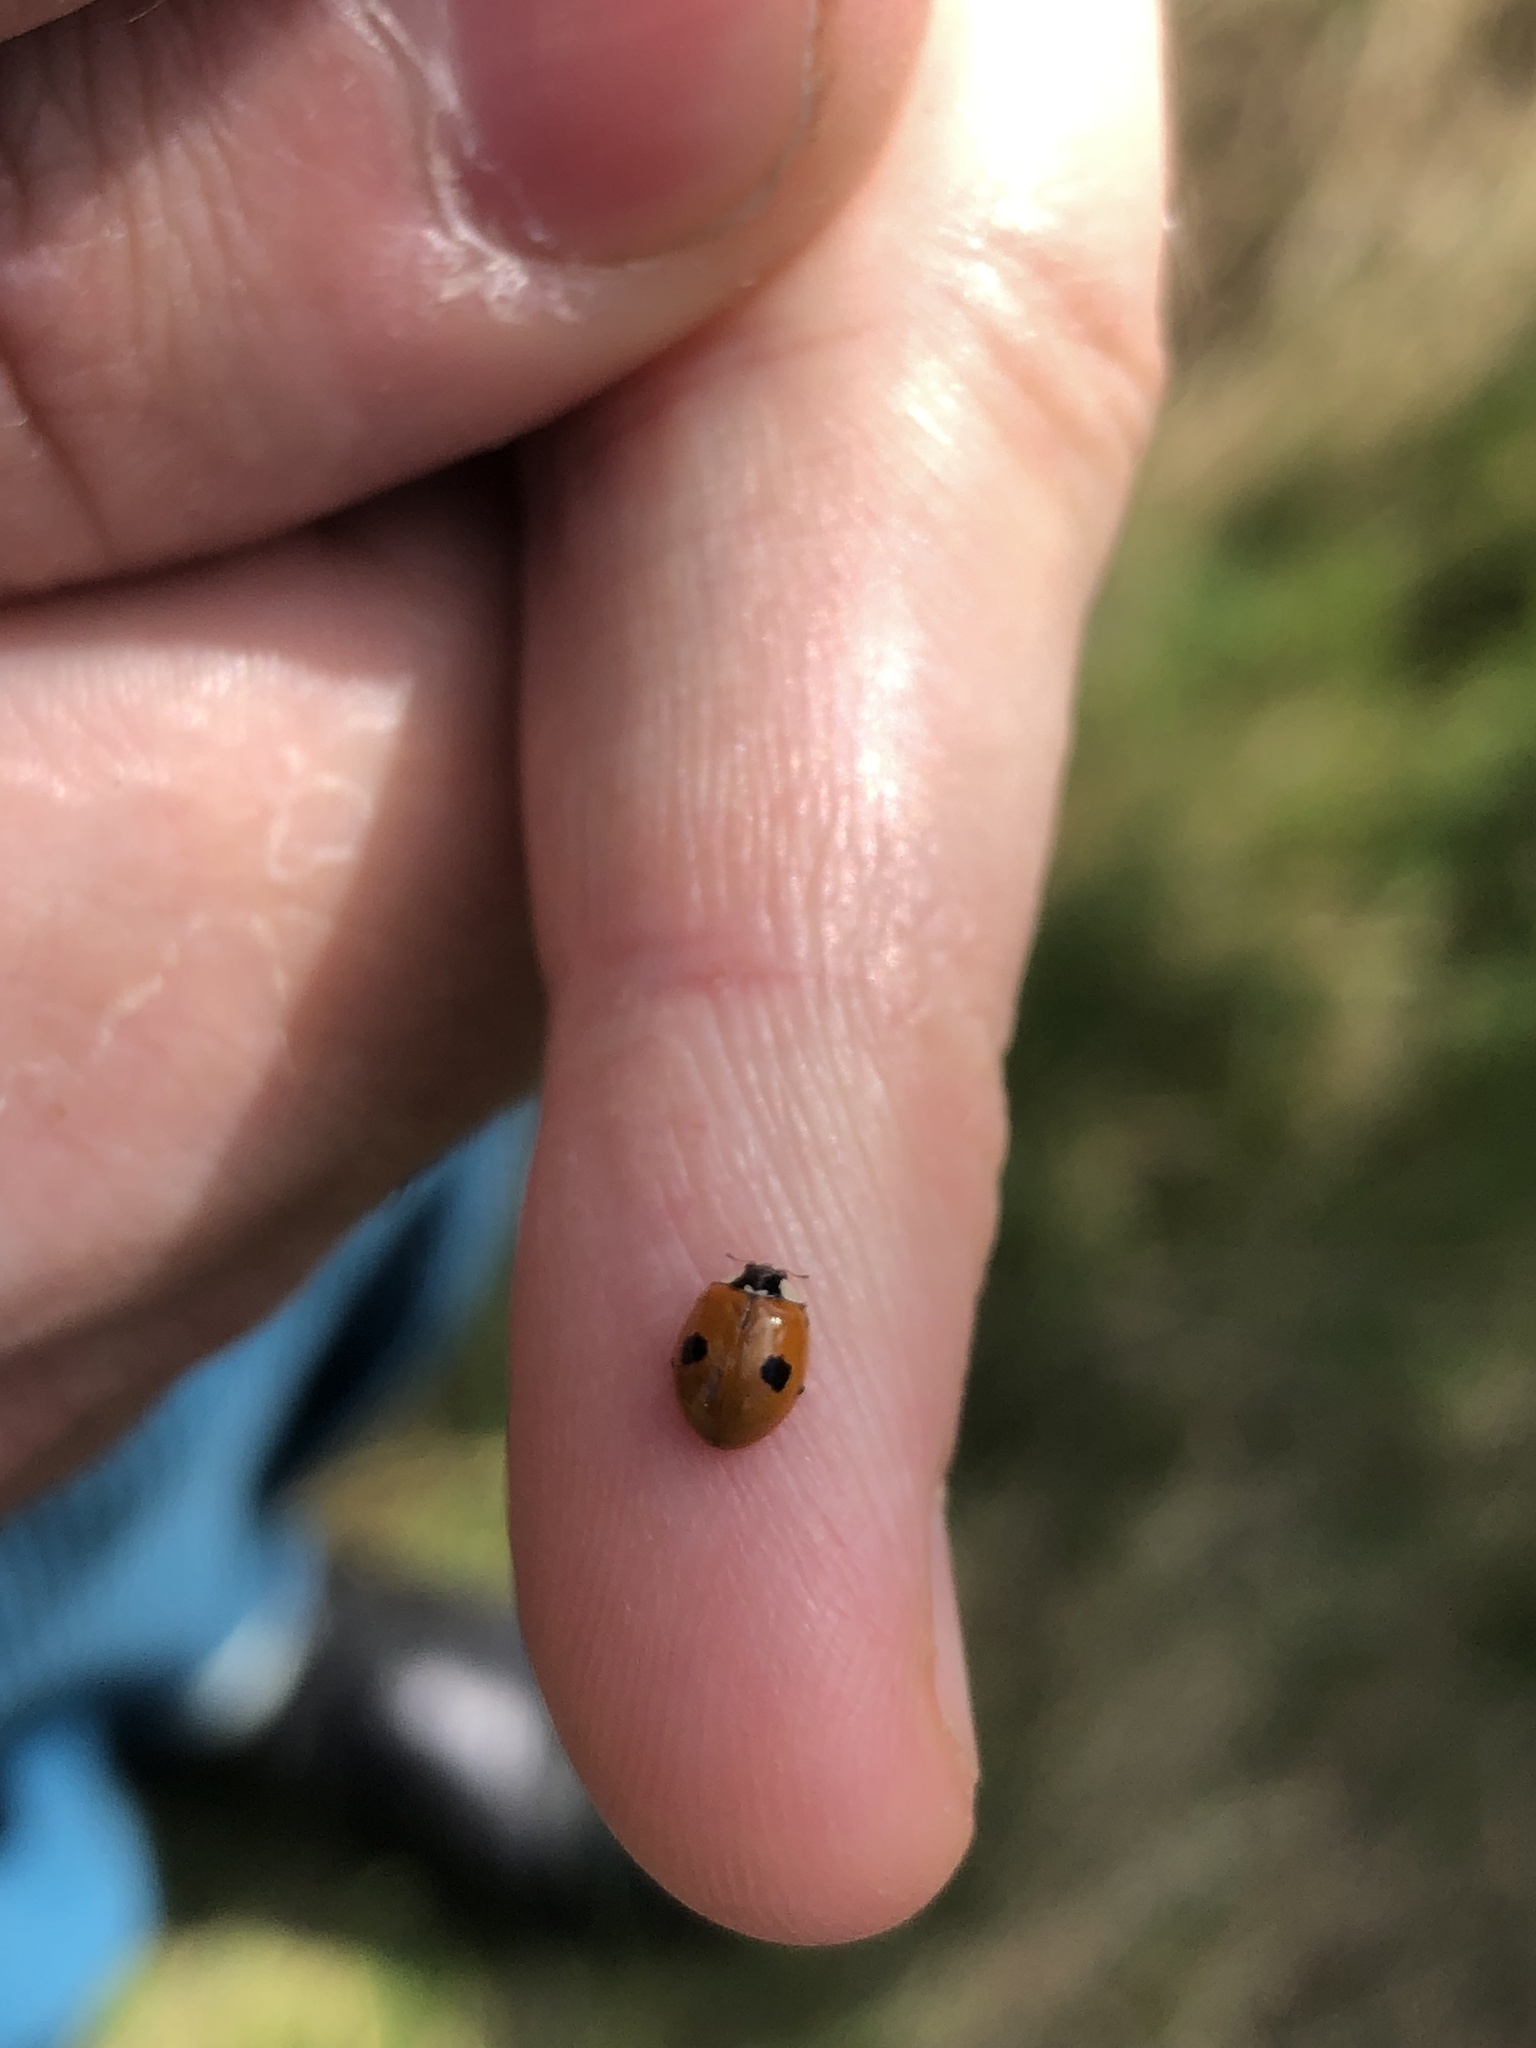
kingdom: Animalia
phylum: Arthropoda
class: Insecta
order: Coleoptera
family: Coccinellidae
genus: Adalia
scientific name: Adalia bipunctata
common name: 2-spot ladybird
